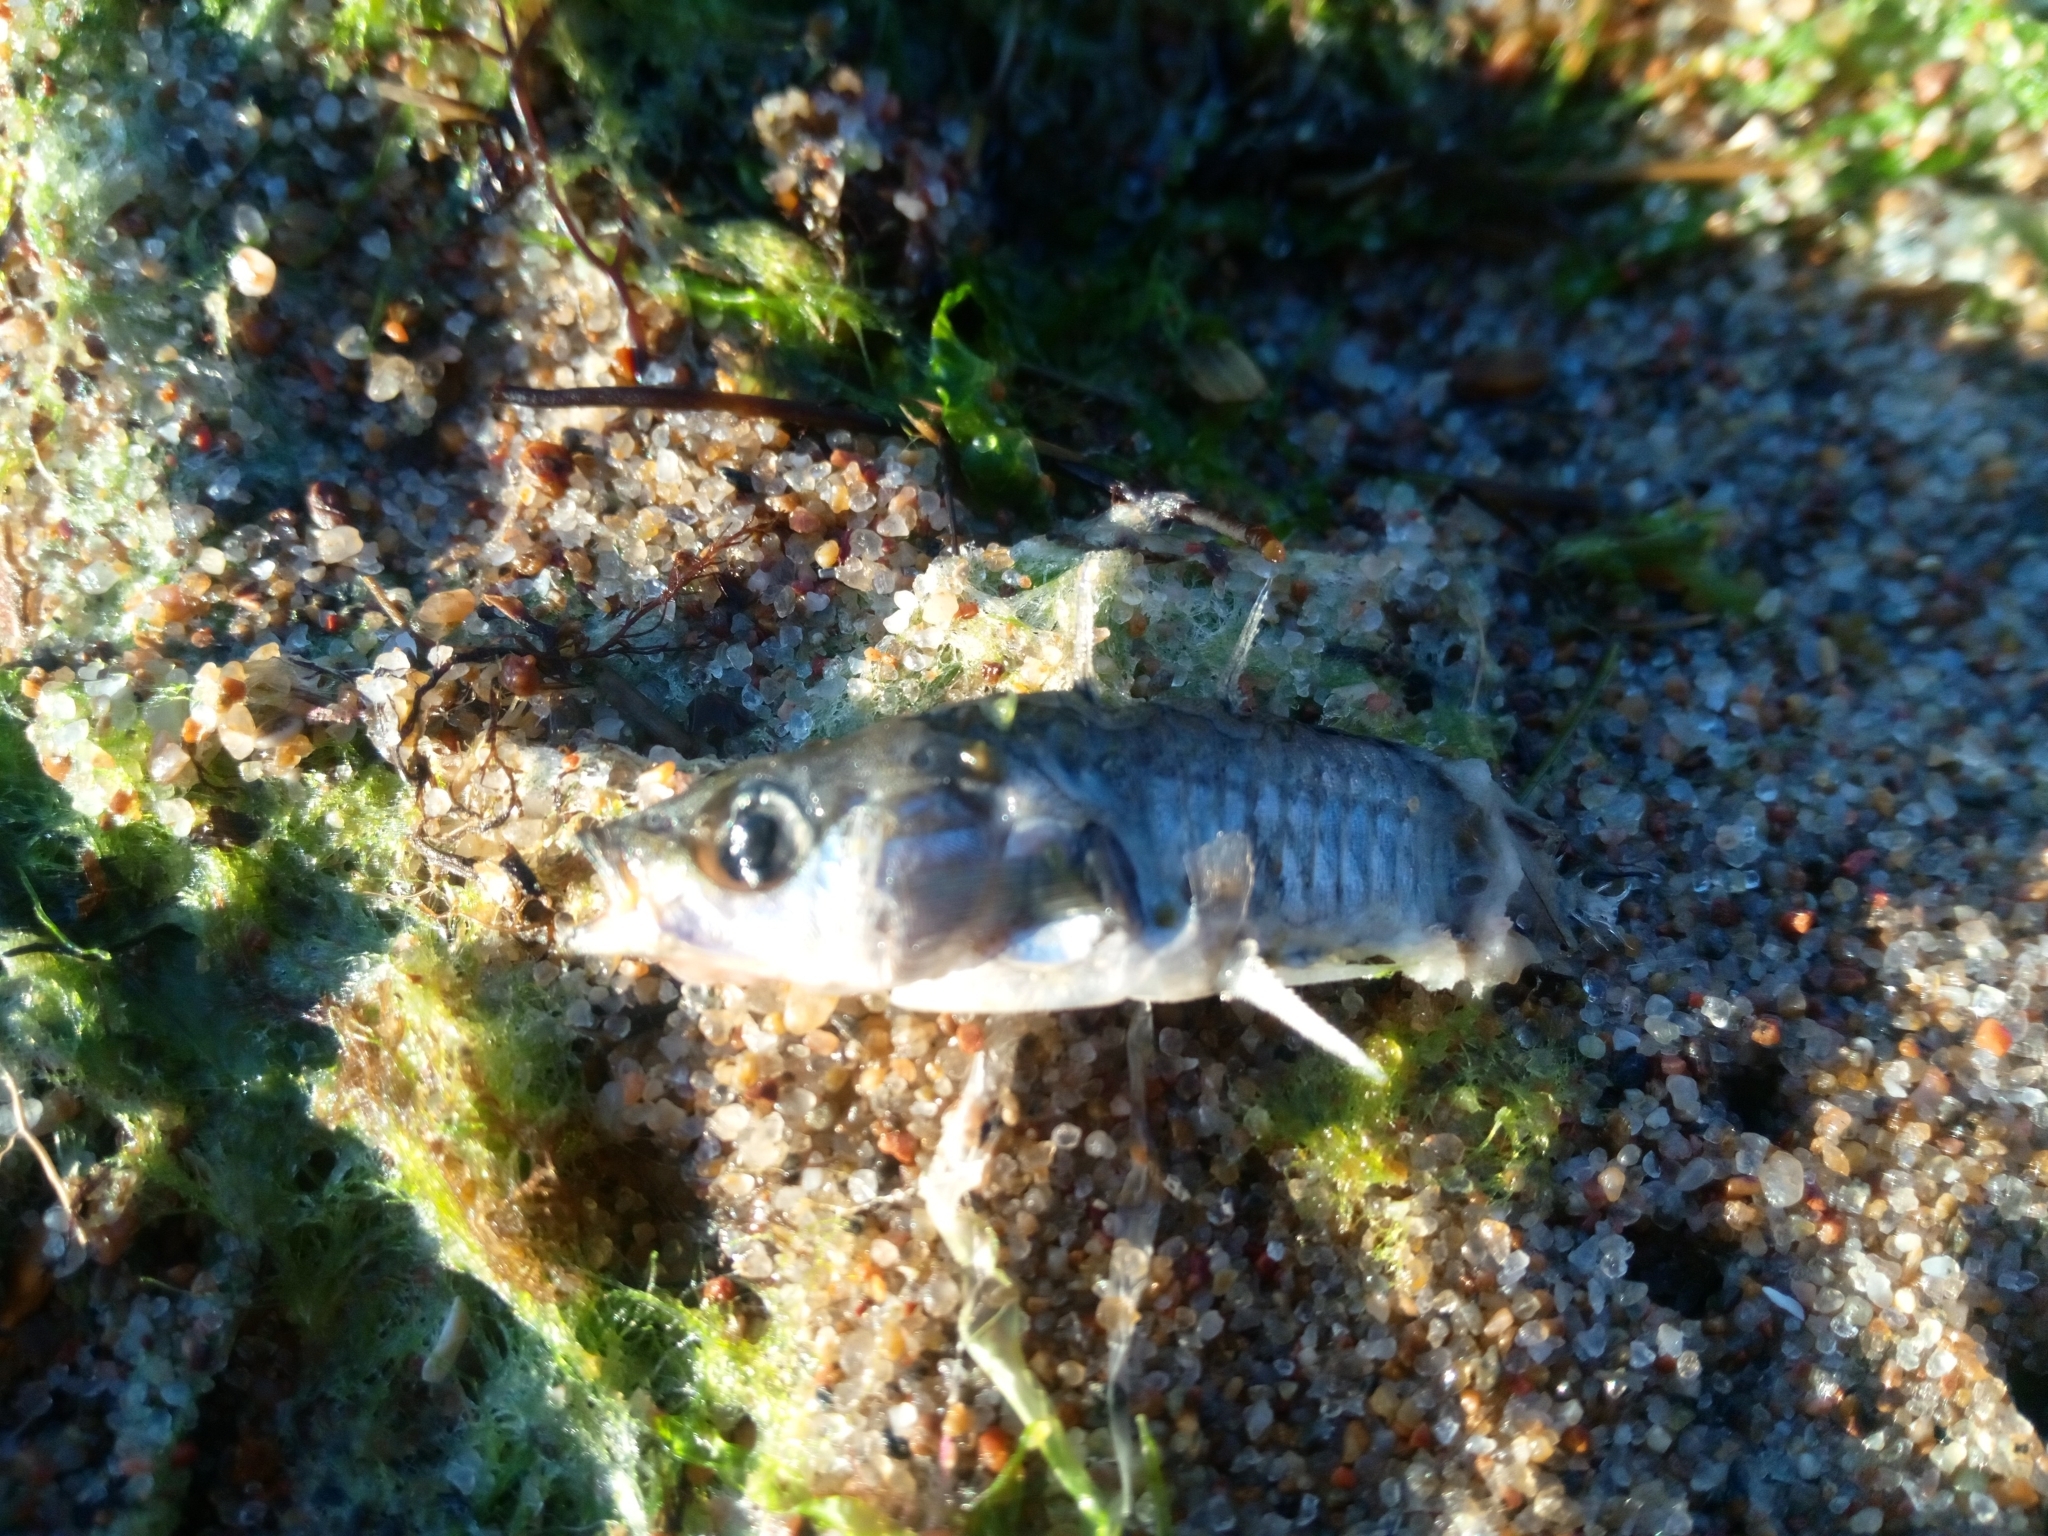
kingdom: Animalia
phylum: Chordata
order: Gasterosteiformes
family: Gasterosteidae
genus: Gasterosteus
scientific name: Gasterosteus aculeatus
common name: Three-spined stickleback
